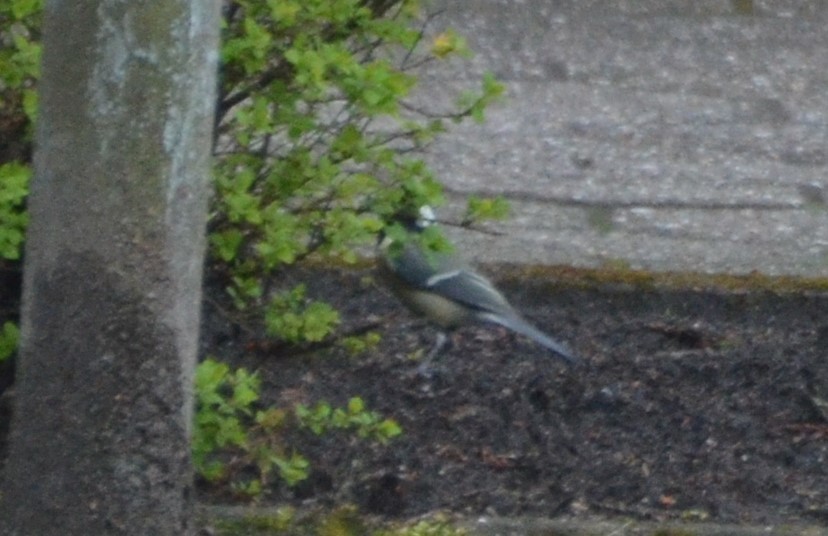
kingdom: Animalia
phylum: Chordata
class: Aves
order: Passeriformes
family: Paridae
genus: Parus
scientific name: Parus major
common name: Great tit
